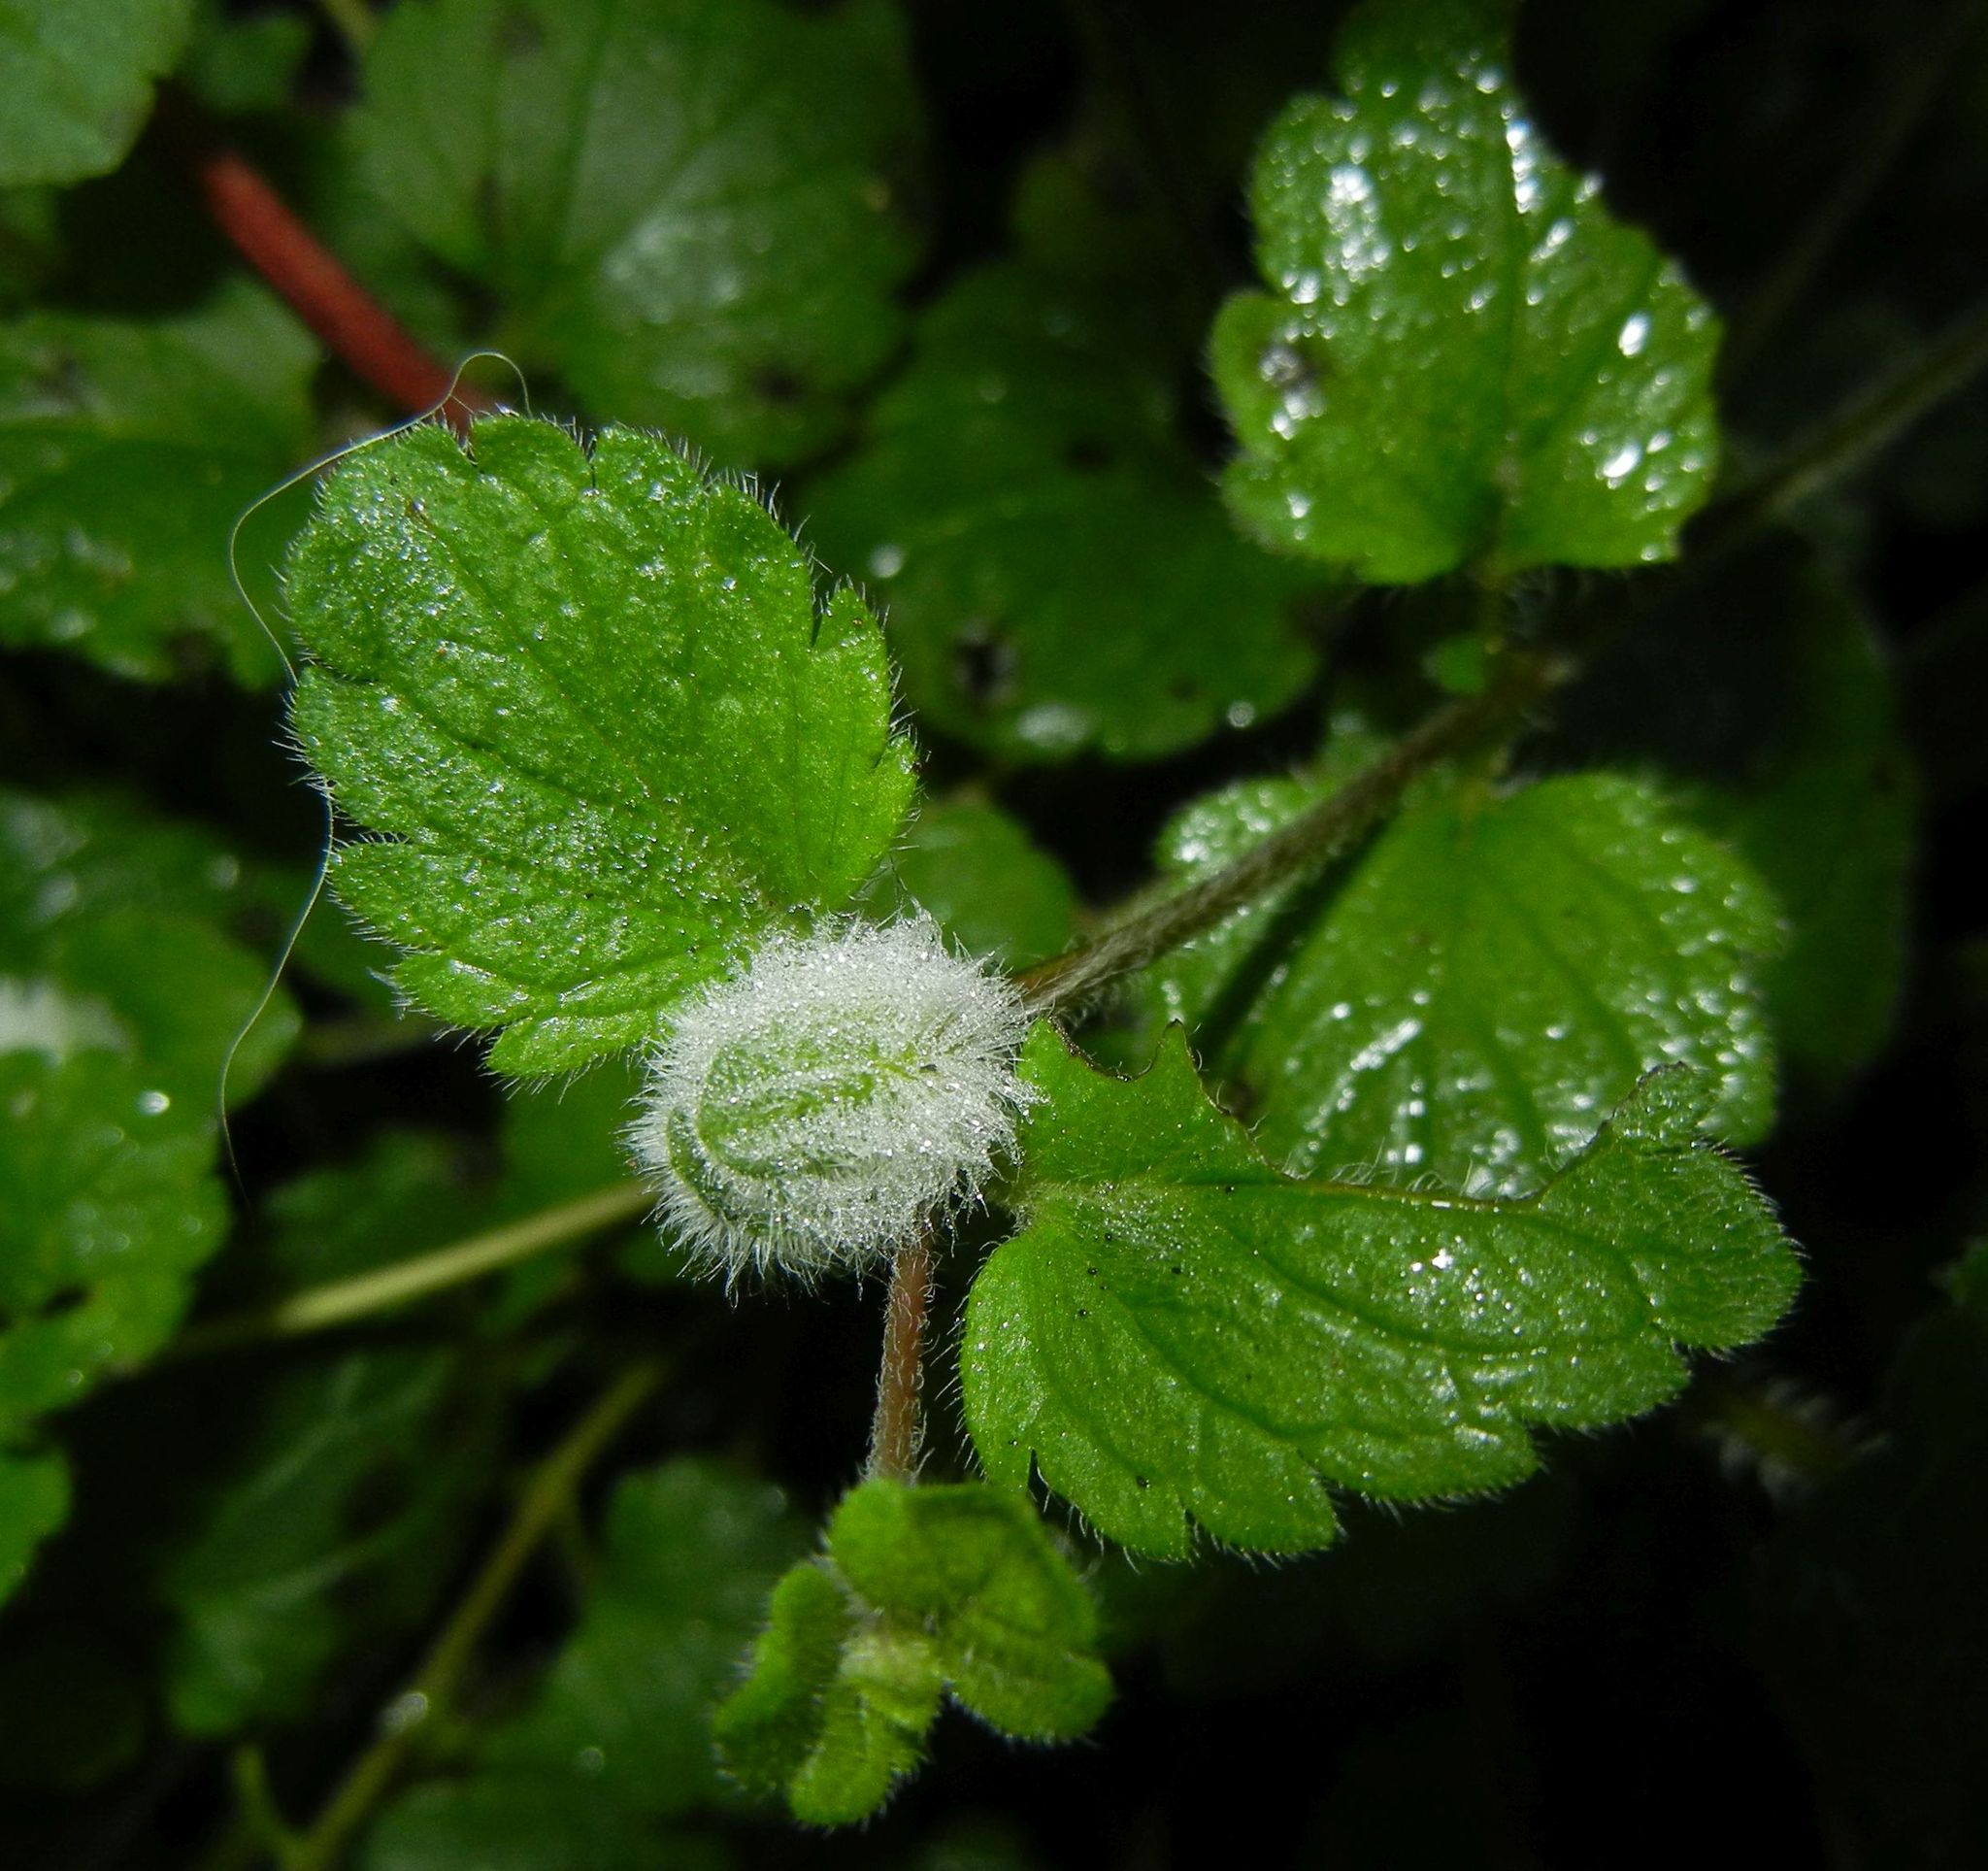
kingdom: Animalia
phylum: Arthropoda
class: Insecta
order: Diptera
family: Cecidomyiidae
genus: Jaapiella
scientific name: Jaapiella veronicae
